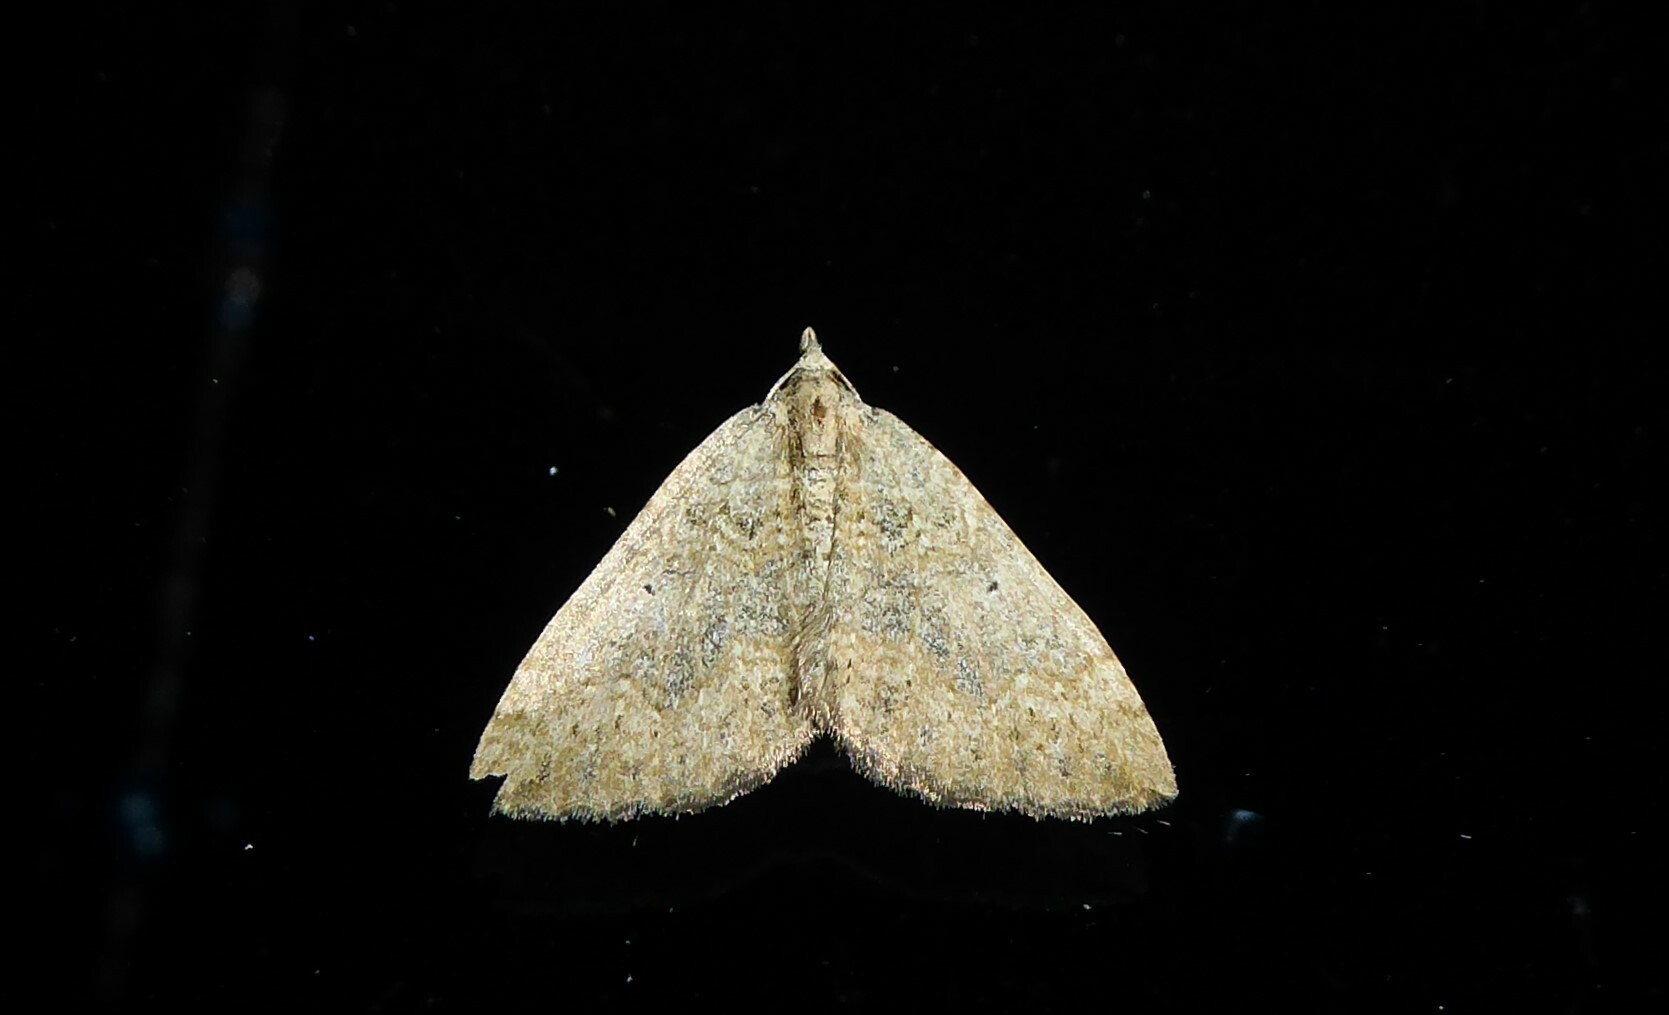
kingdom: Animalia
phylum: Arthropoda
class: Insecta
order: Lepidoptera
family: Geometridae
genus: Epyaxa
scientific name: Epyaxa rosearia
